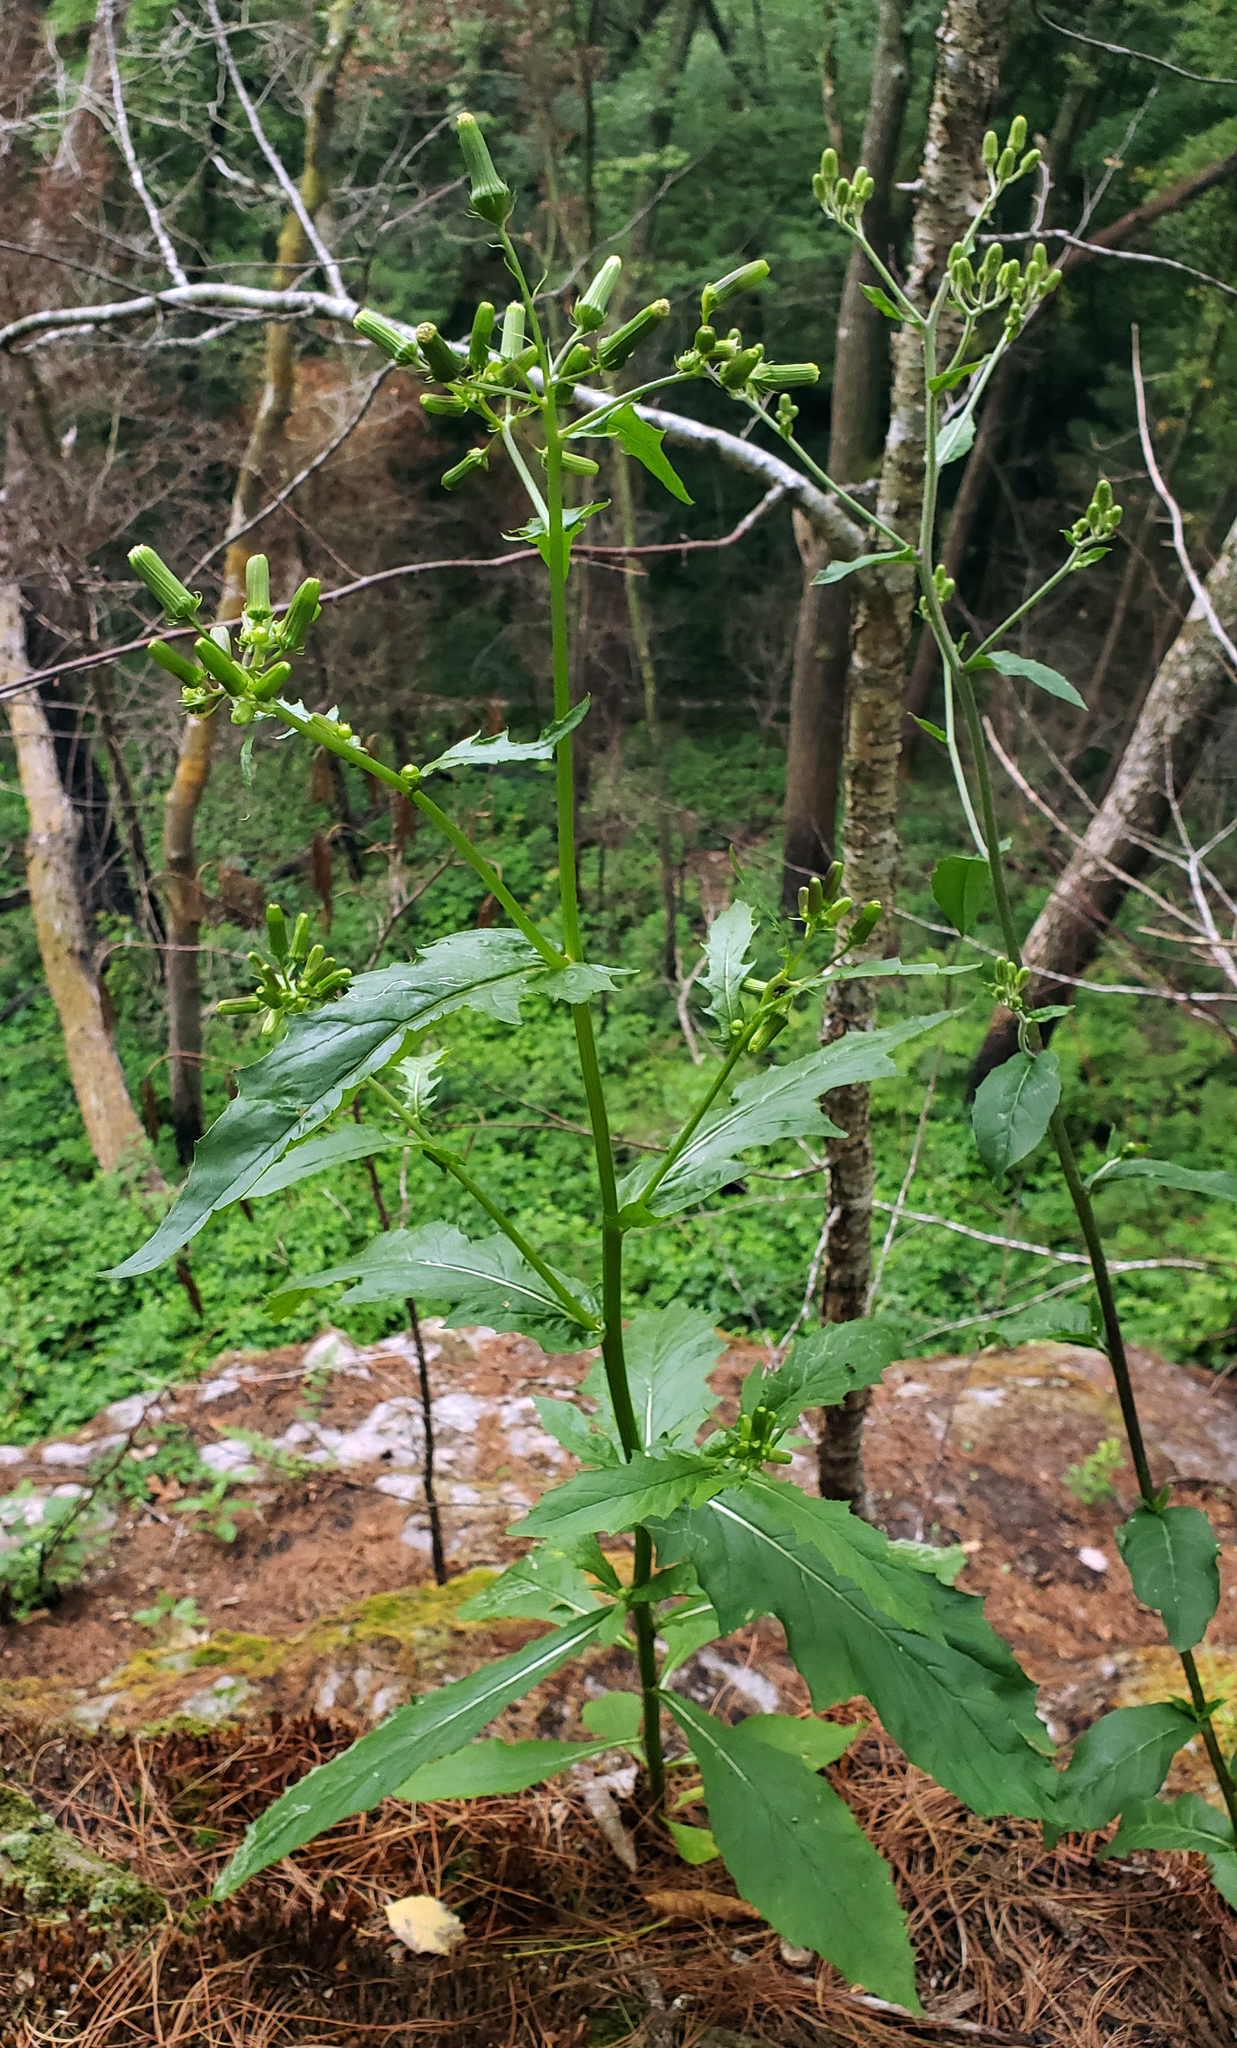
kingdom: Plantae
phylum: Tracheophyta
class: Magnoliopsida
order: Asterales
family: Asteraceae
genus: Erechtites
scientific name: Erechtites hieraciifolius
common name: American burnweed
